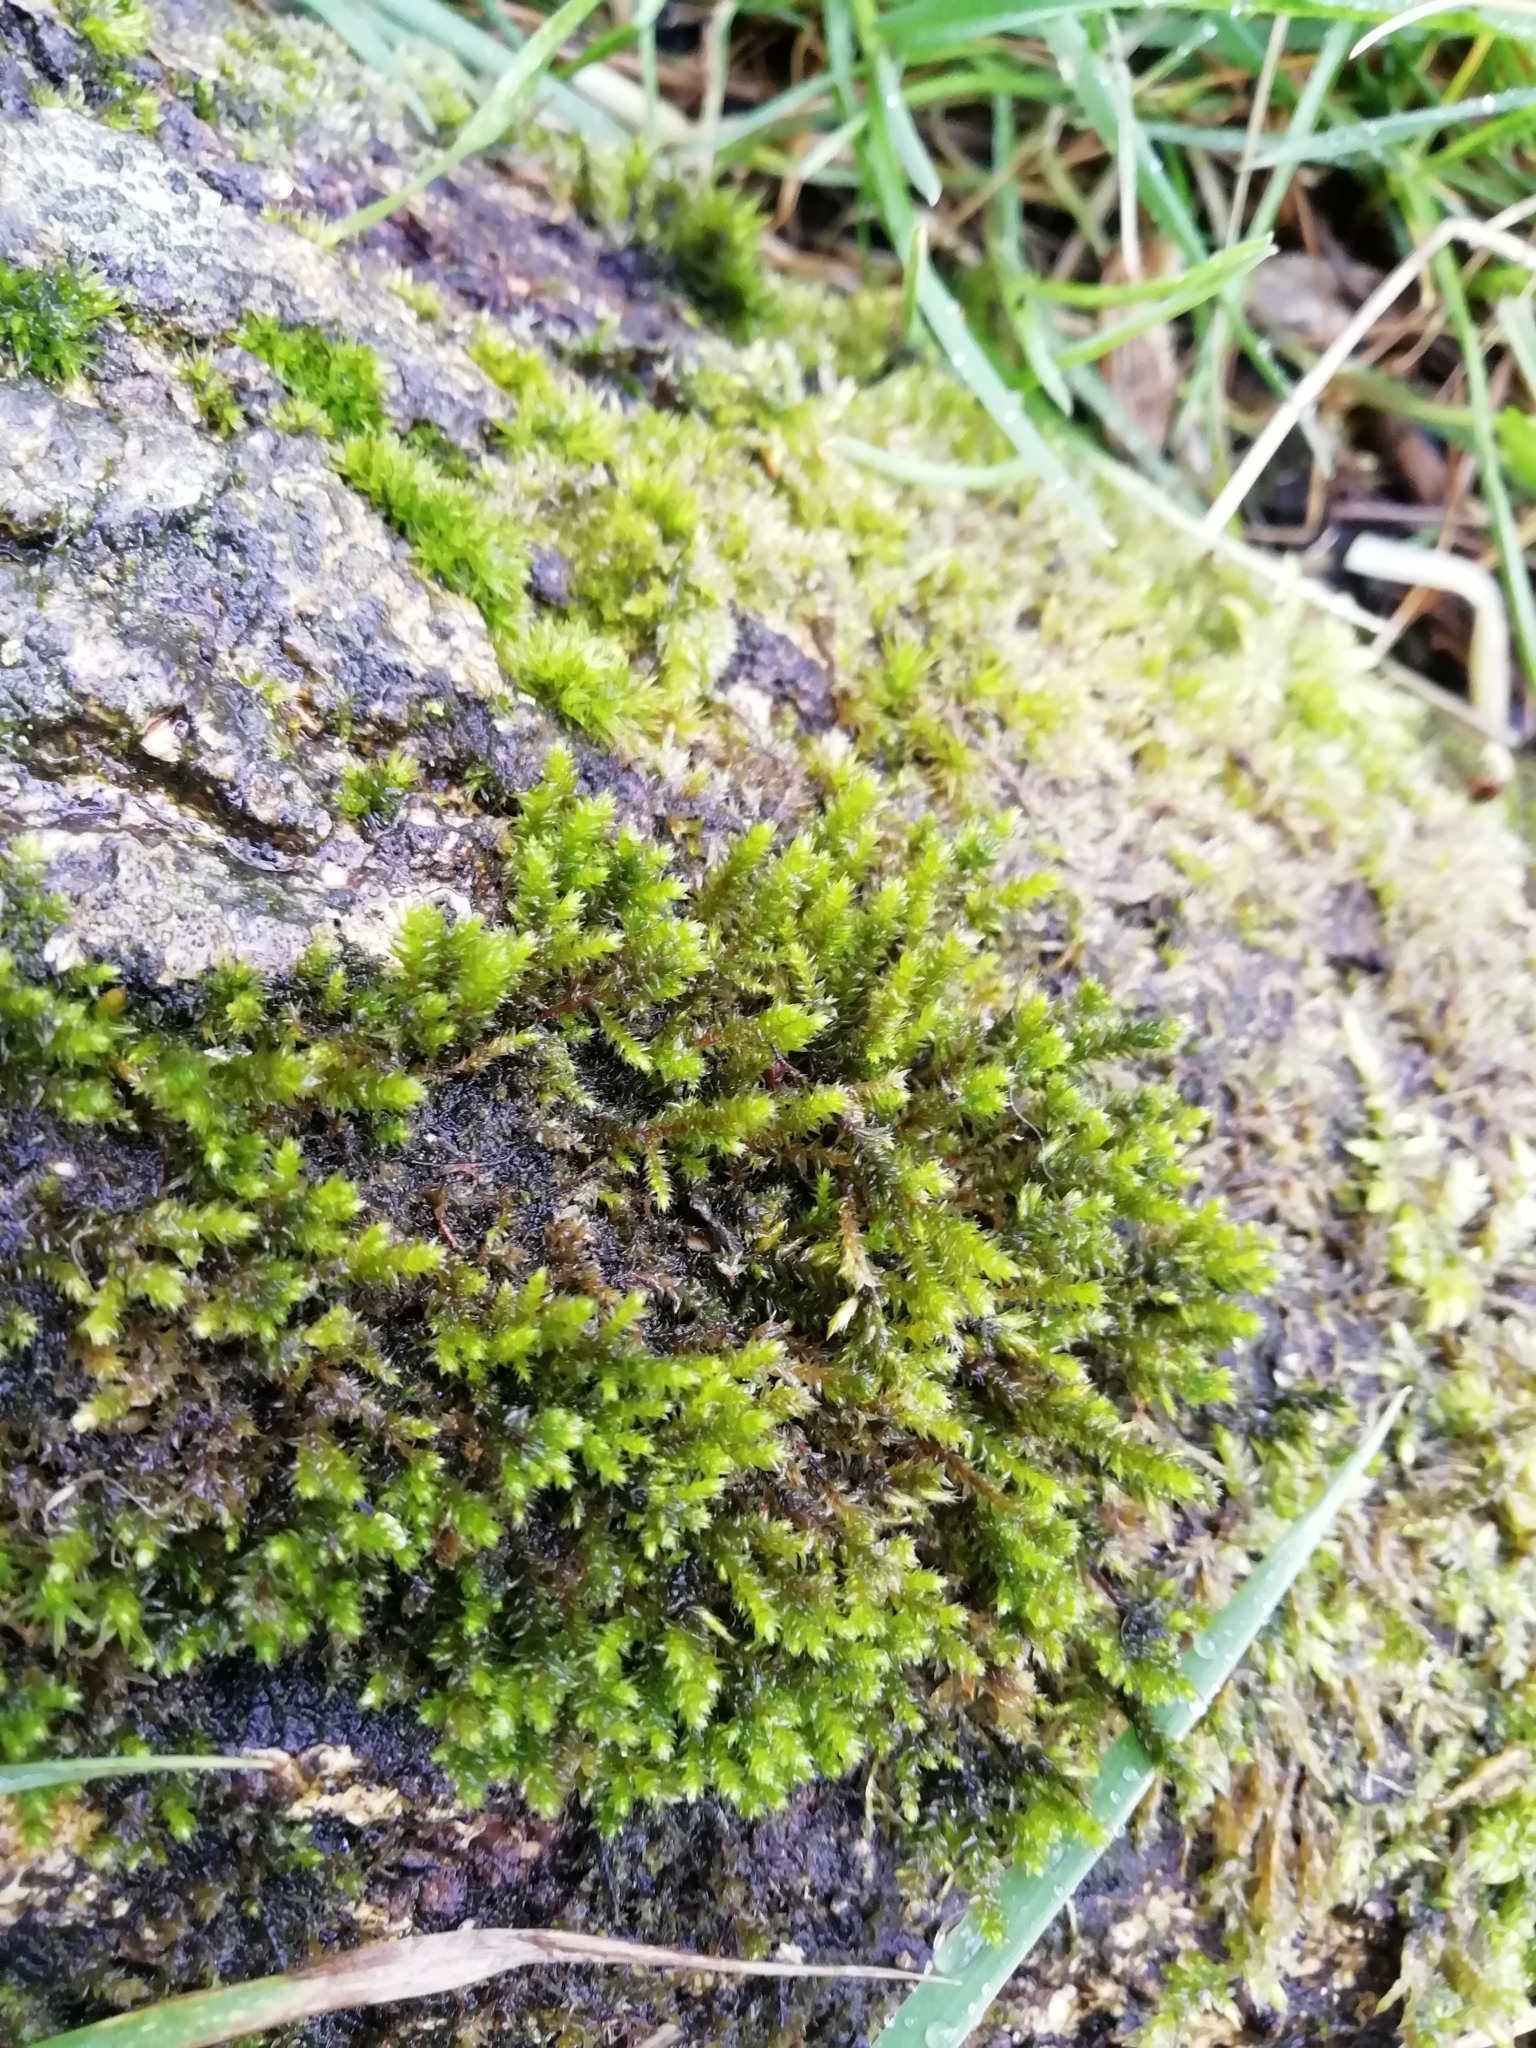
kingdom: Plantae
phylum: Bryophyta
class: Bryopsida
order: Hypnales
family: Cryphaeaceae
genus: Cryphaea
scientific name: Cryphaea heteromalla
